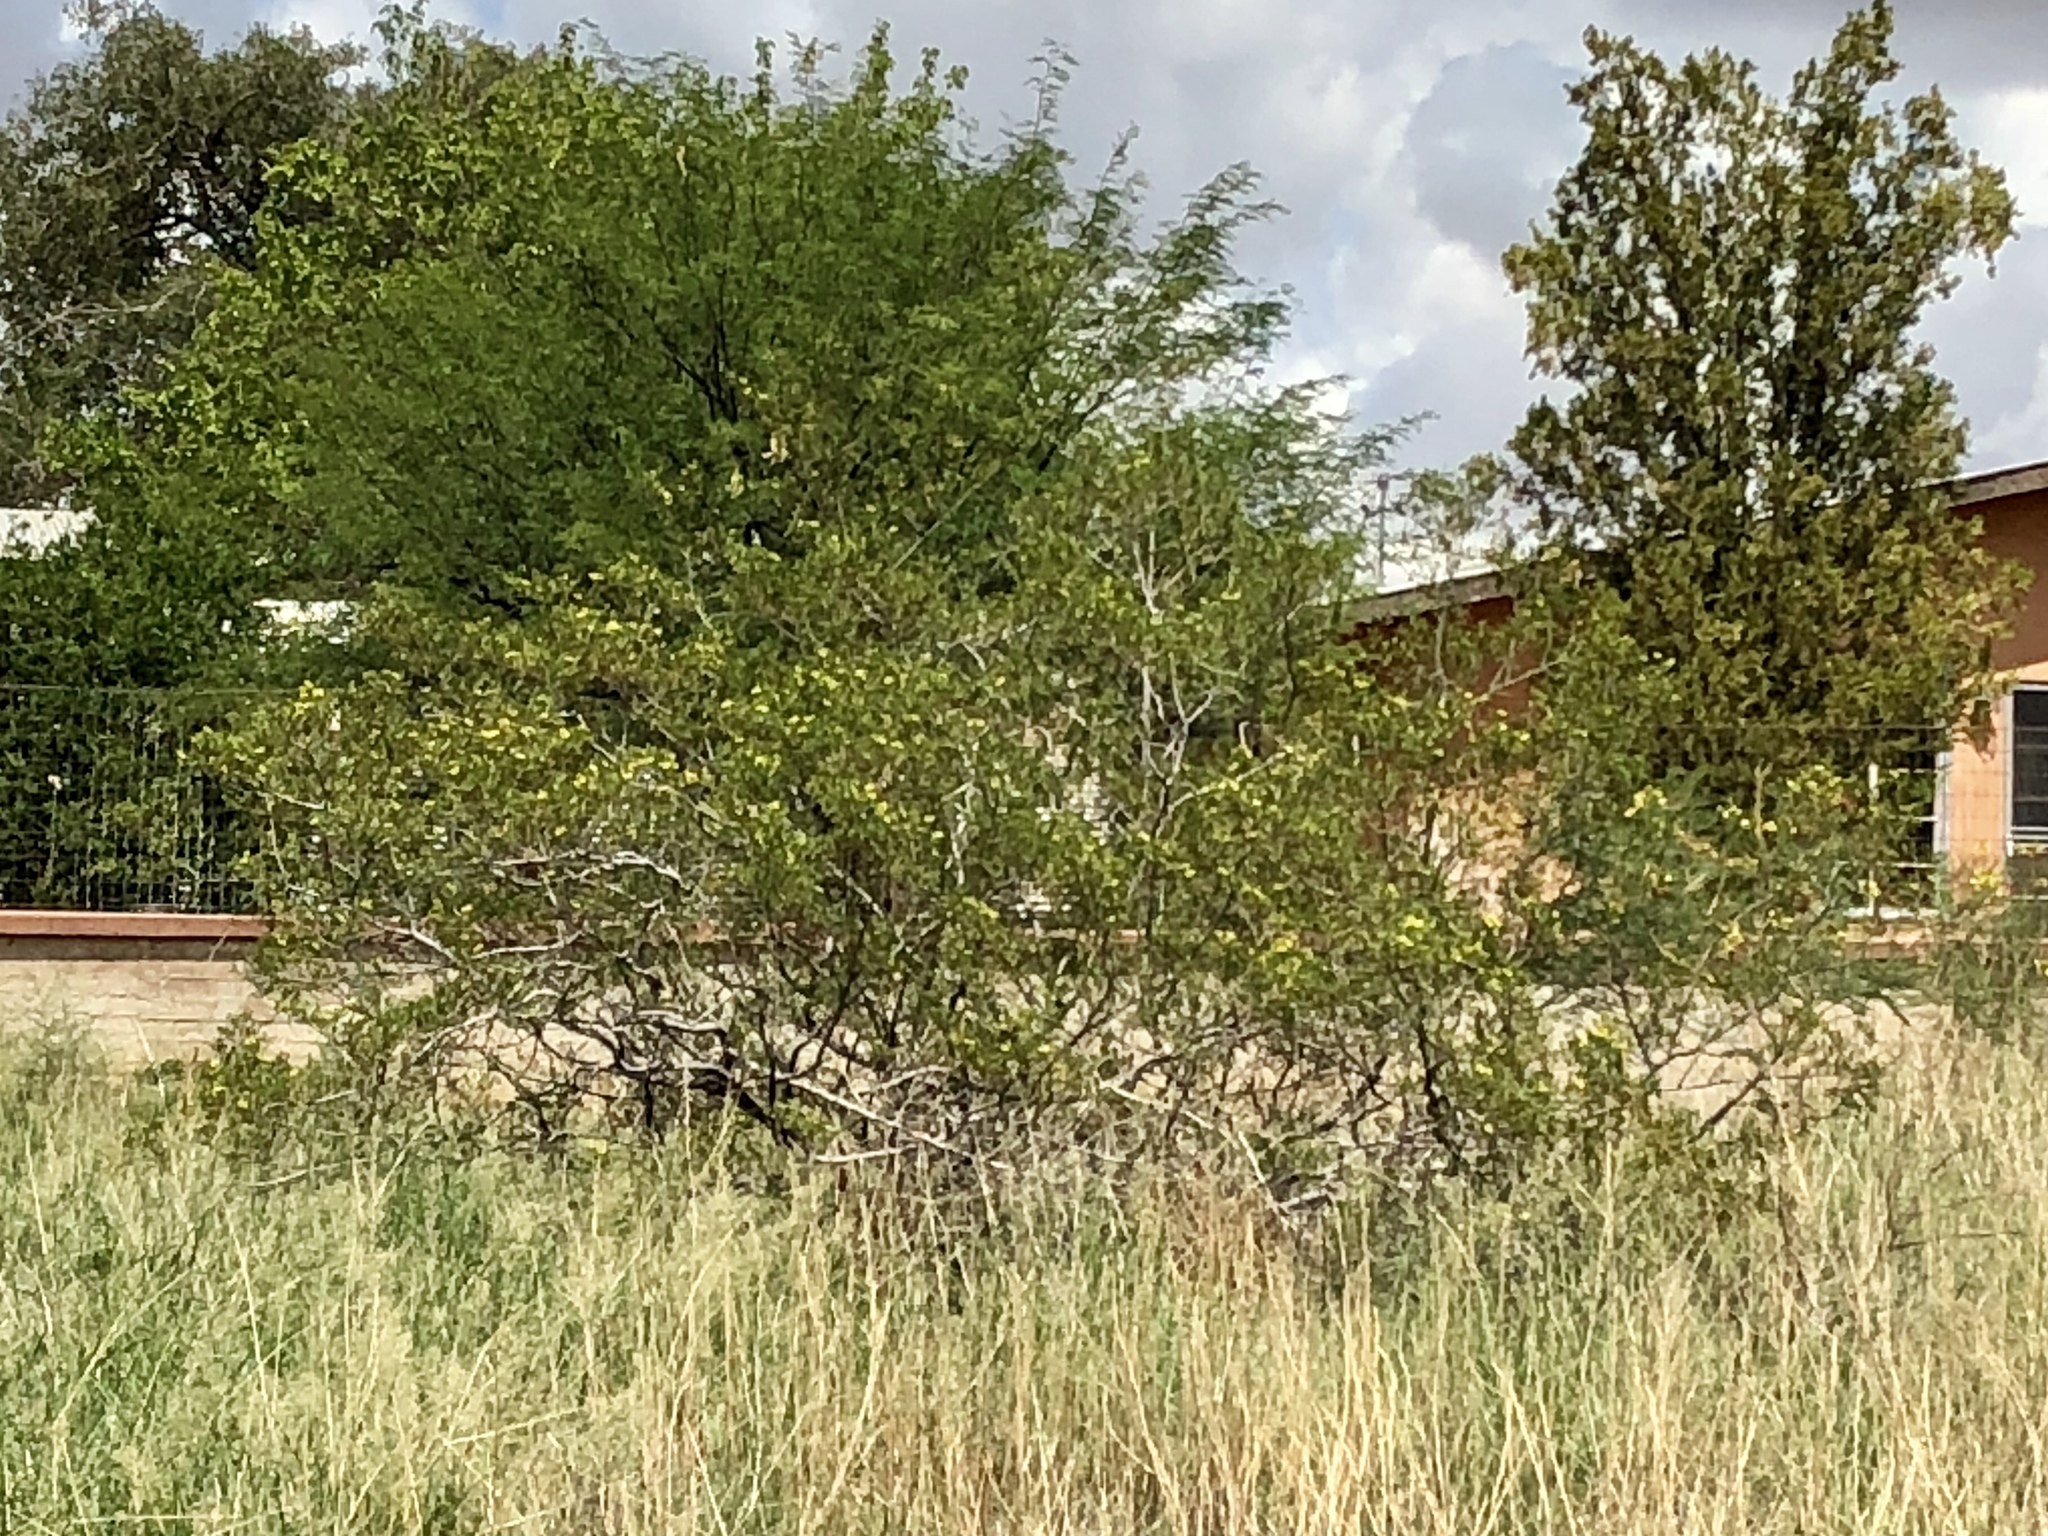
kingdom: Plantae
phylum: Tracheophyta
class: Magnoliopsida
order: Zygophyllales
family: Zygophyllaceae
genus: Larrea
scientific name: Larrea tridentata
